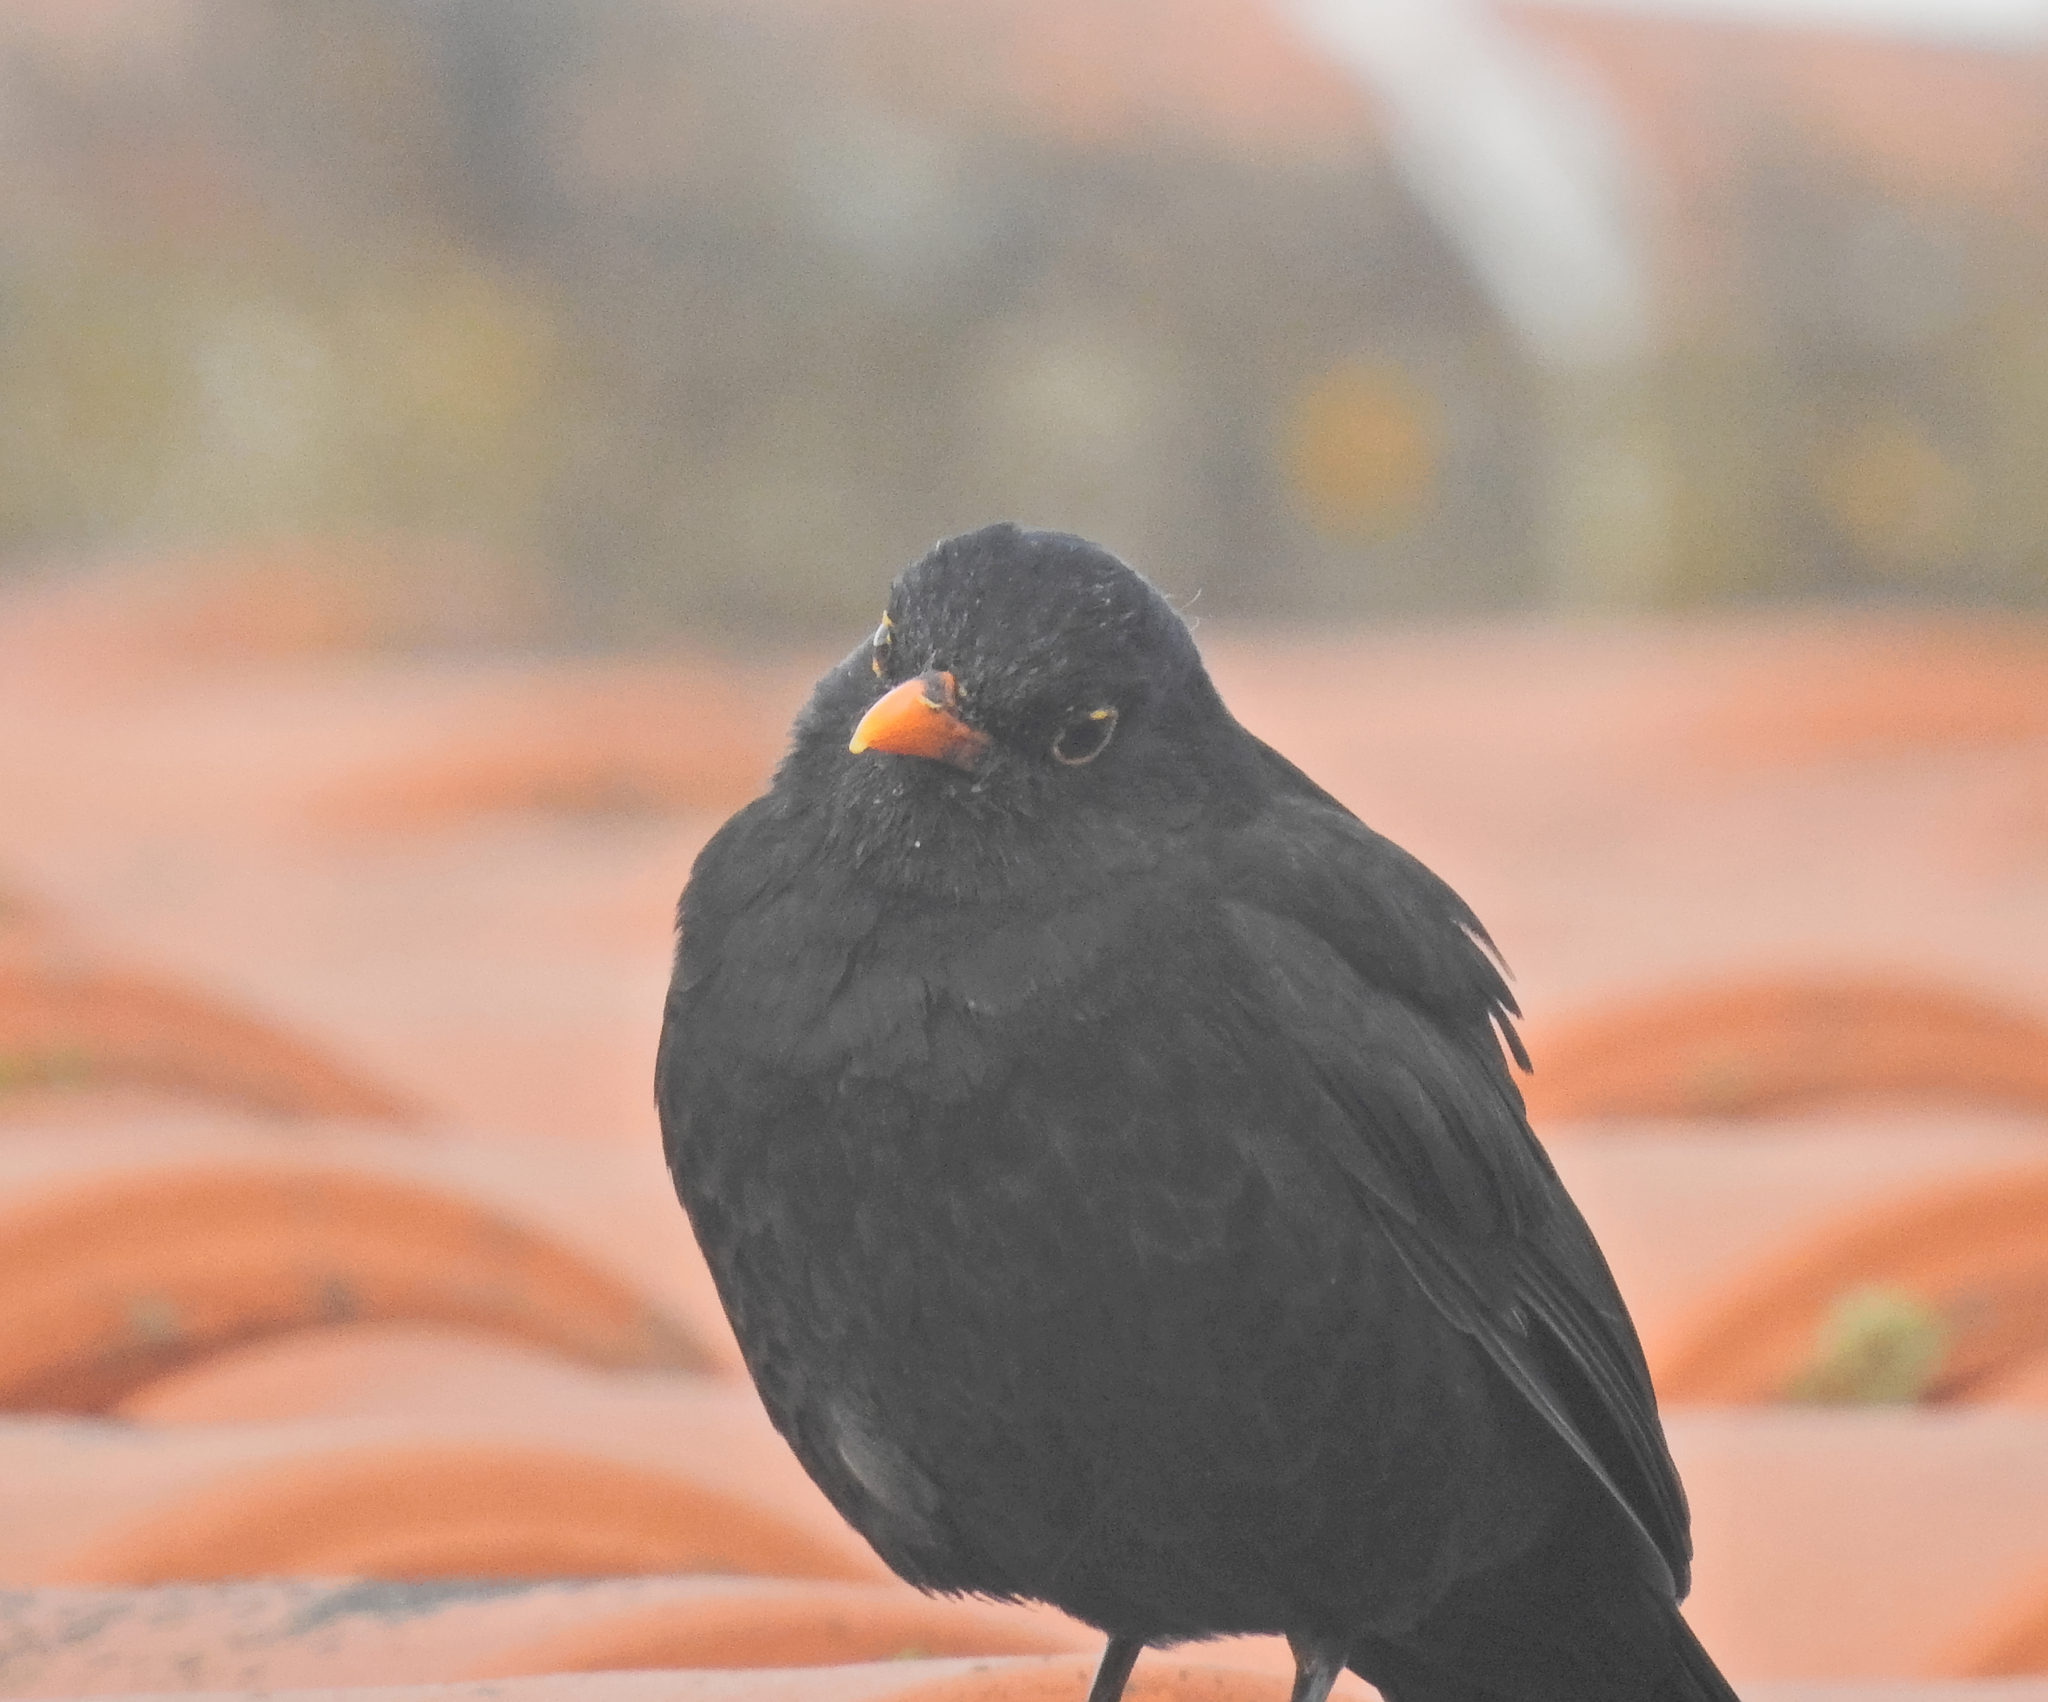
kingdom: Animalia
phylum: Chordata
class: Aves
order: Passeriformes
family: Turdidae
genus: Turdus
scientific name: Turdus merula
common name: Common blackbird
